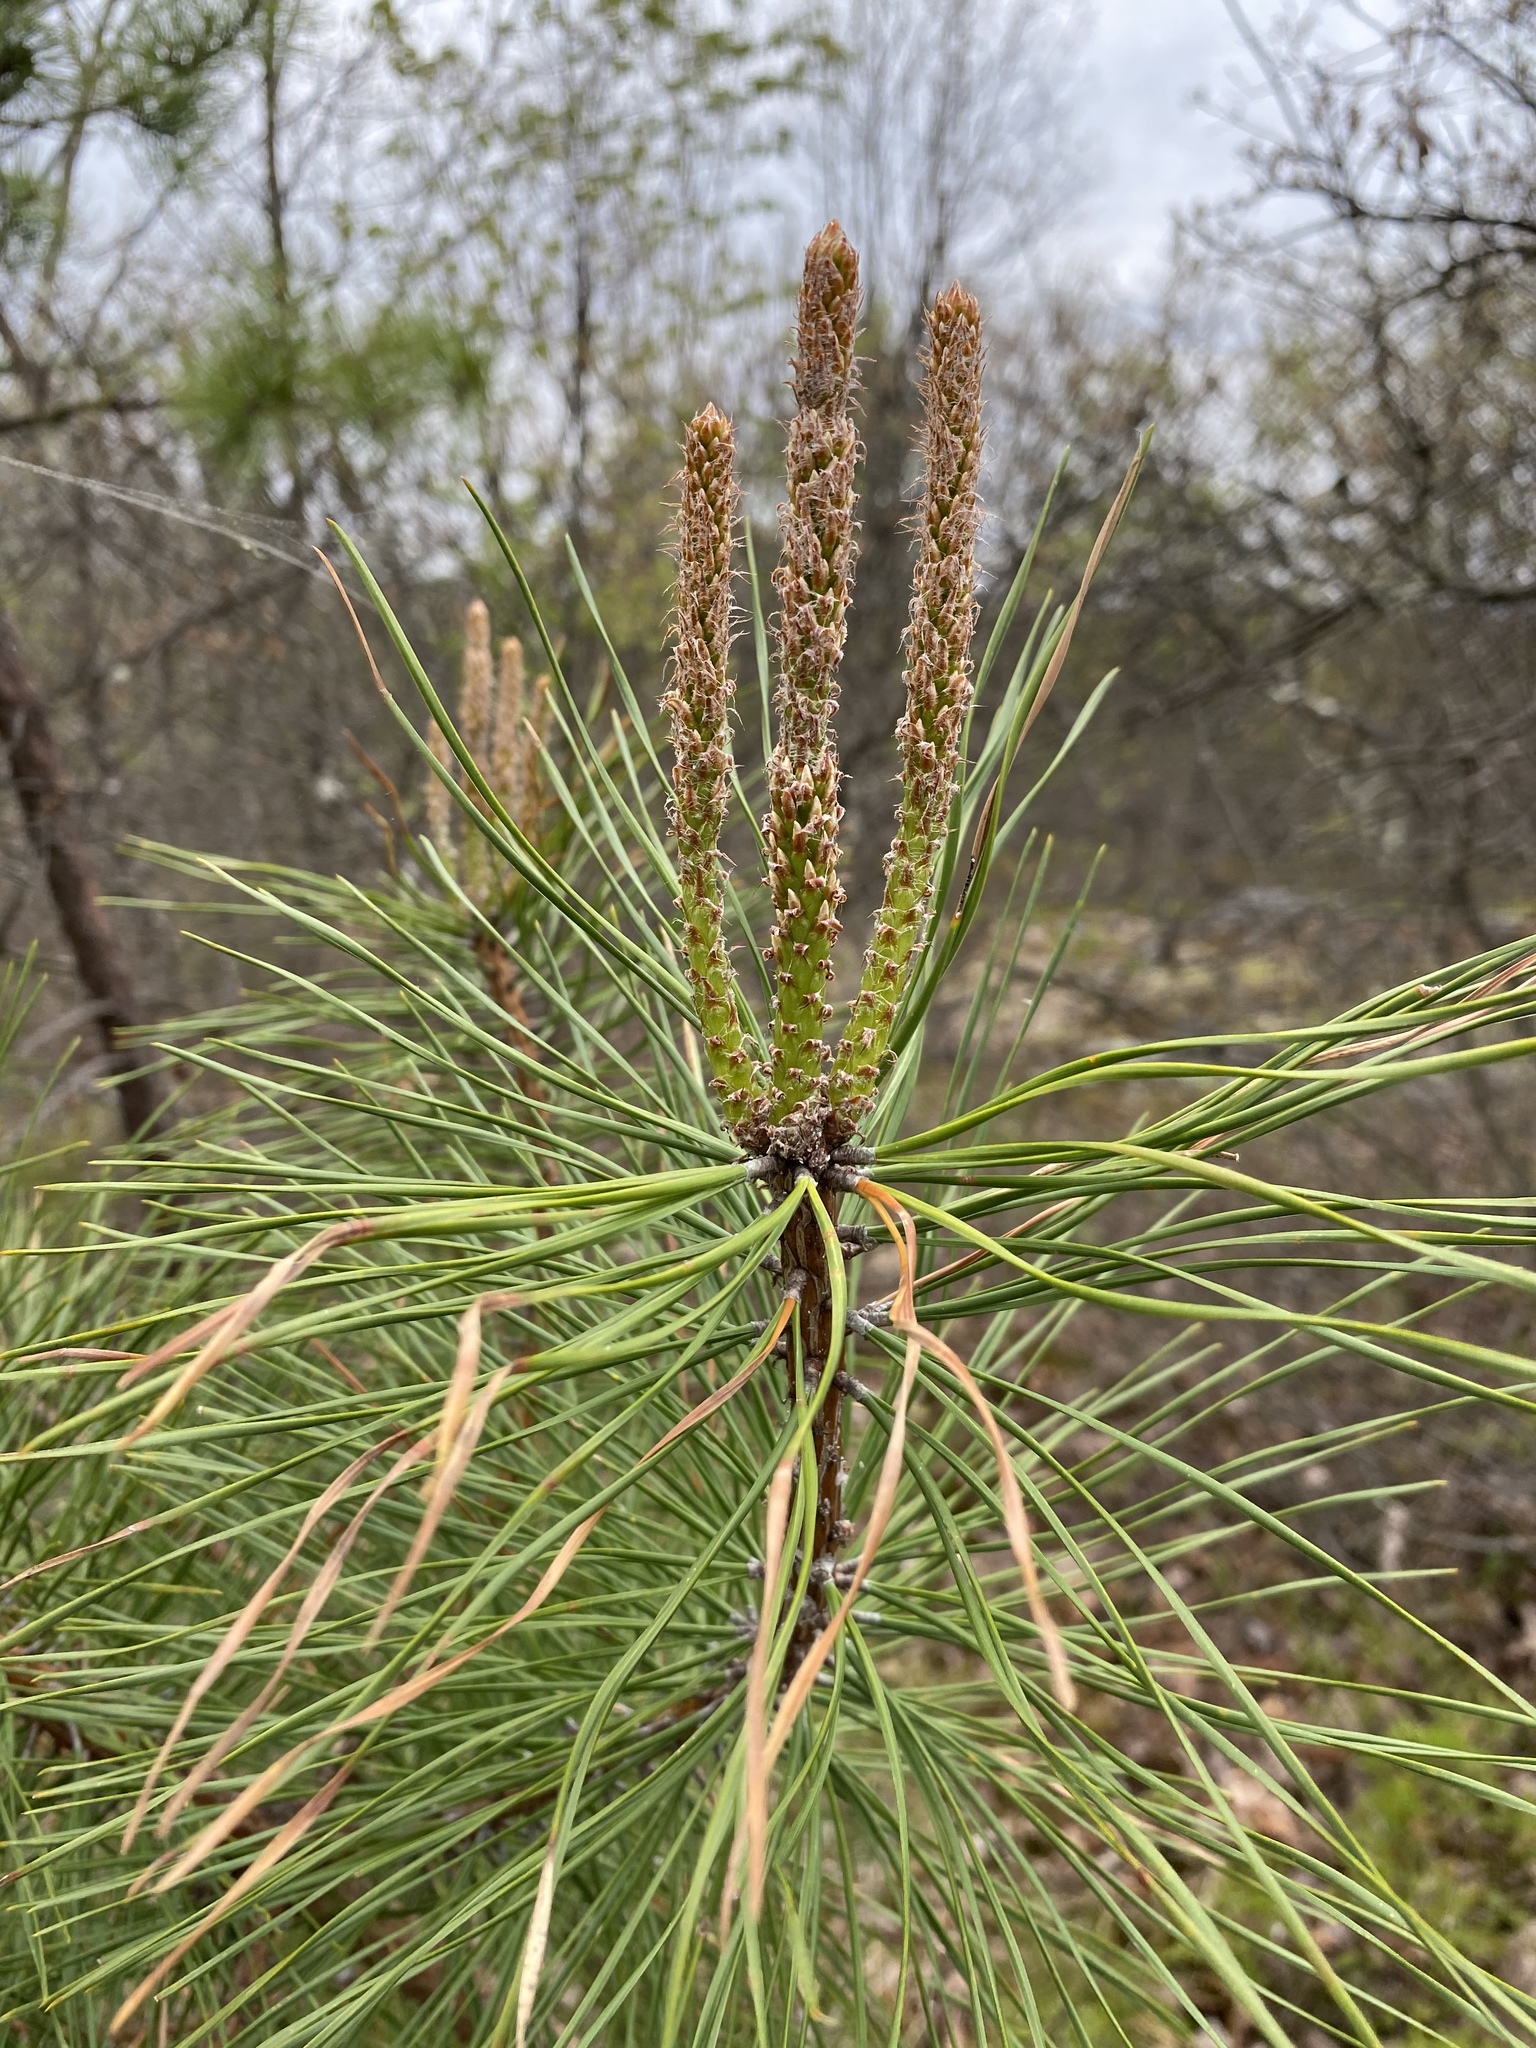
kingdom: Plantae
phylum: Tracheophyta
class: Pinopsida
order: Pinales
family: Pinaceae
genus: Pinus
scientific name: Pinus rigida
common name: Pitch pine
